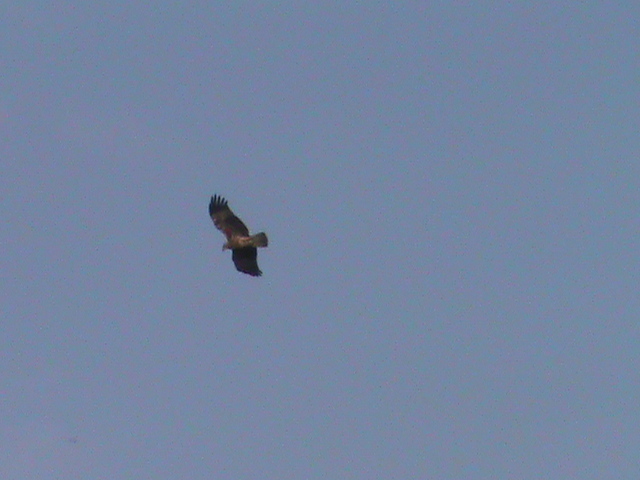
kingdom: Animalia
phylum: Chordata
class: Aves
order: Accipitriformes
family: Accipitridae
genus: Haliastur
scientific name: Haliastur indus
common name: Brahminy kite
